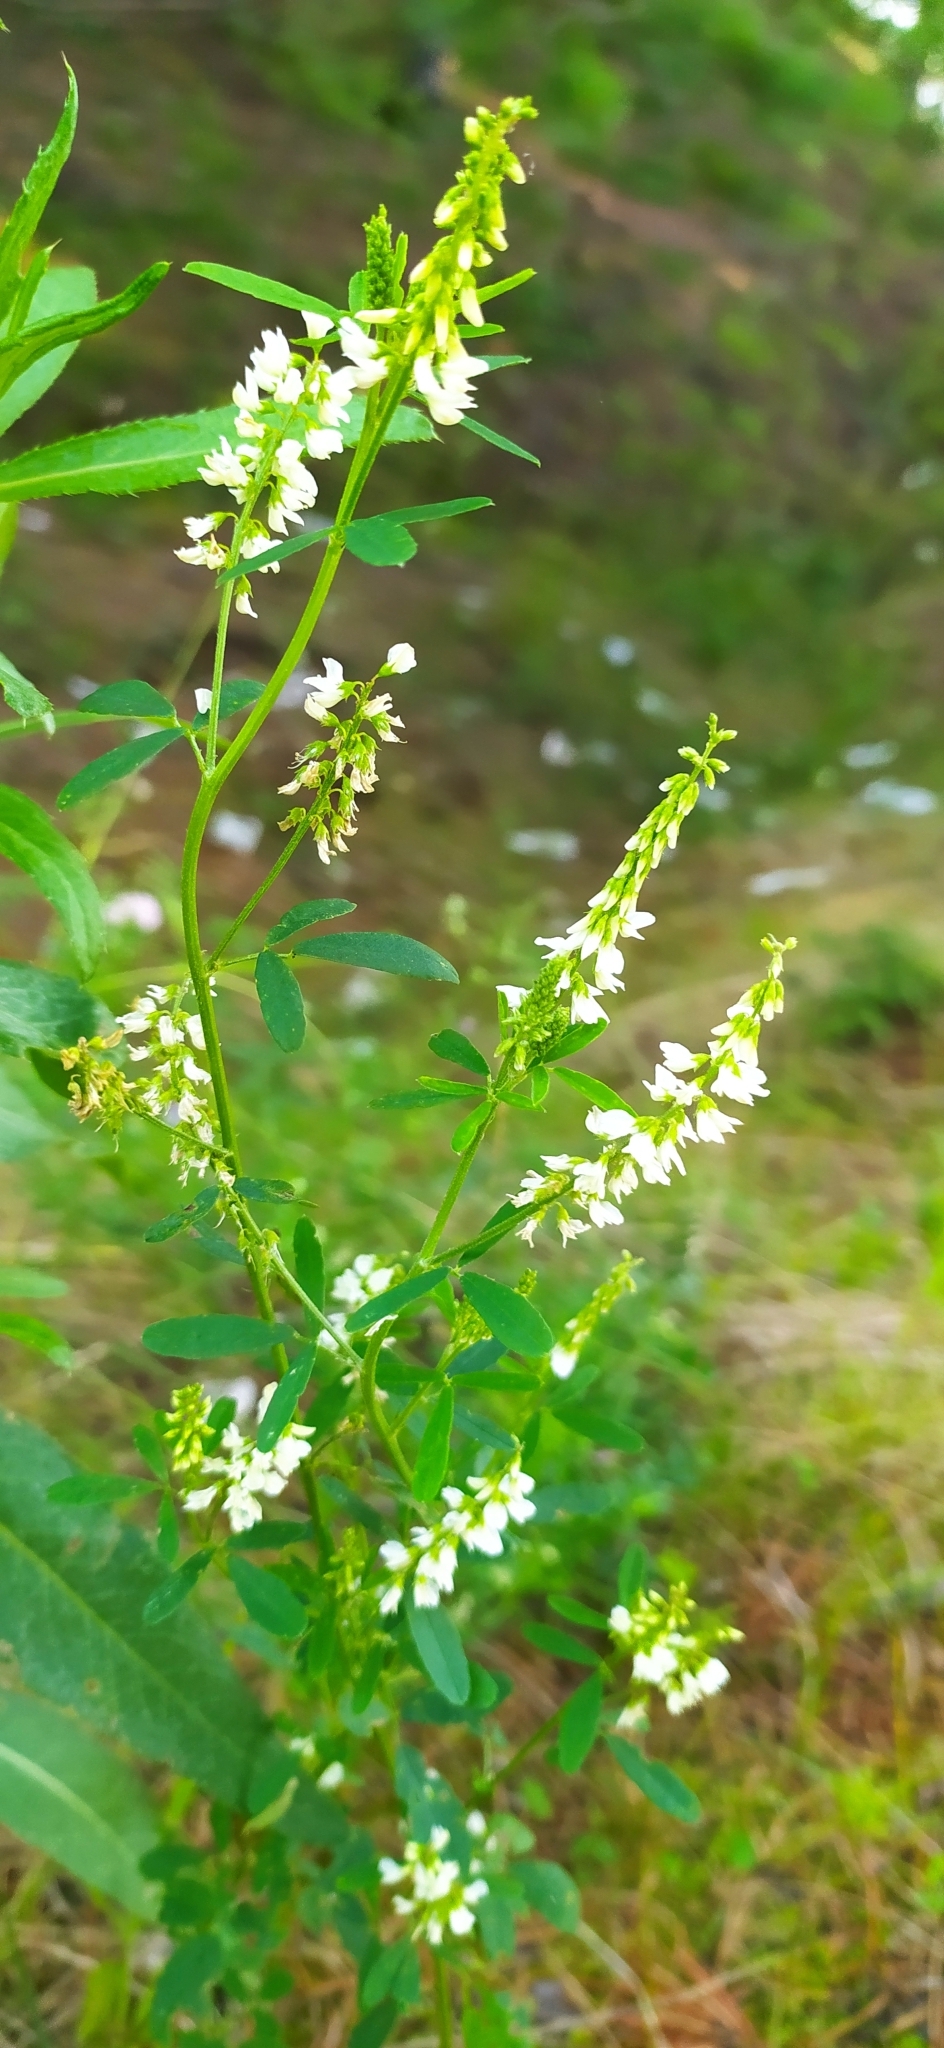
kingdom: Plantae
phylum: Tracheophyta
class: Magnoliopsida
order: Fabales
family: Fabaceae
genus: Melilotus
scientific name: Melilotus albus
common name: White melilot
